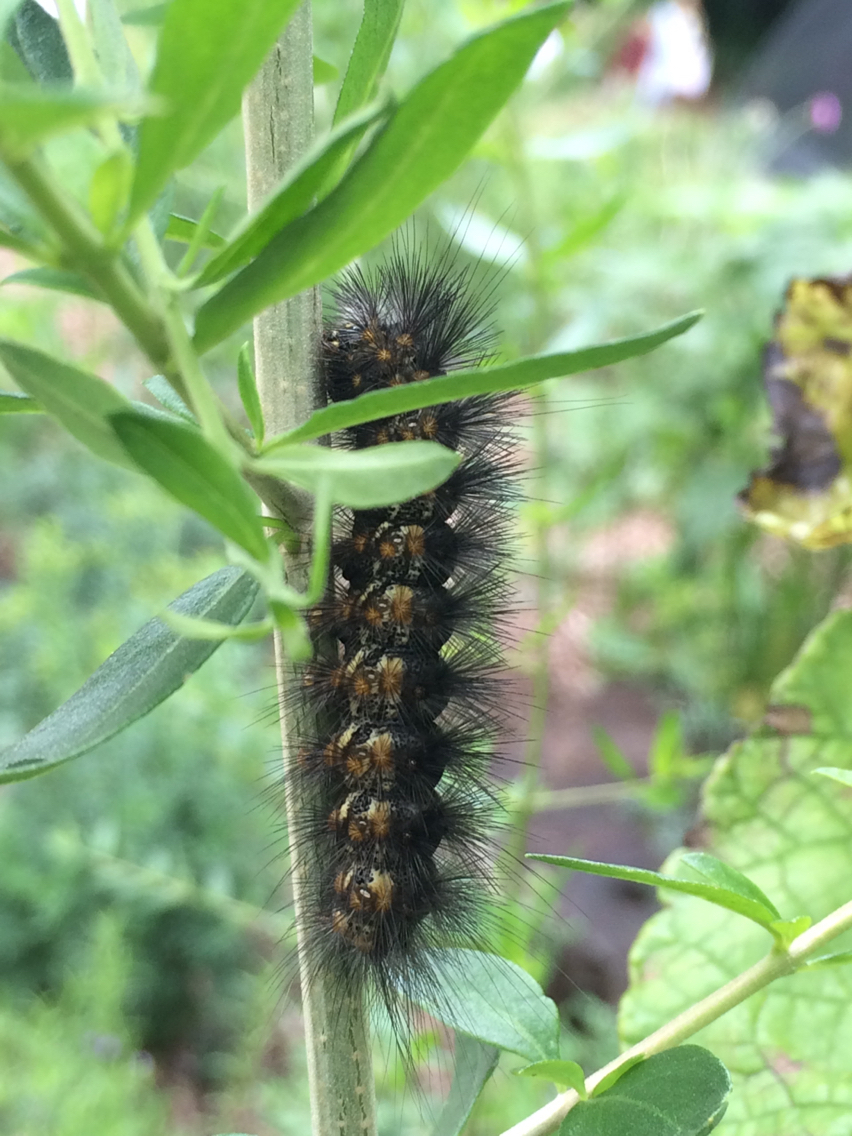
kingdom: Animalia
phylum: Arthropoda
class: Insecta
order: Lepidoptera
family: Erebidae
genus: Estigmene
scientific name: Estigmene acrea
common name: Salt marsh moth
